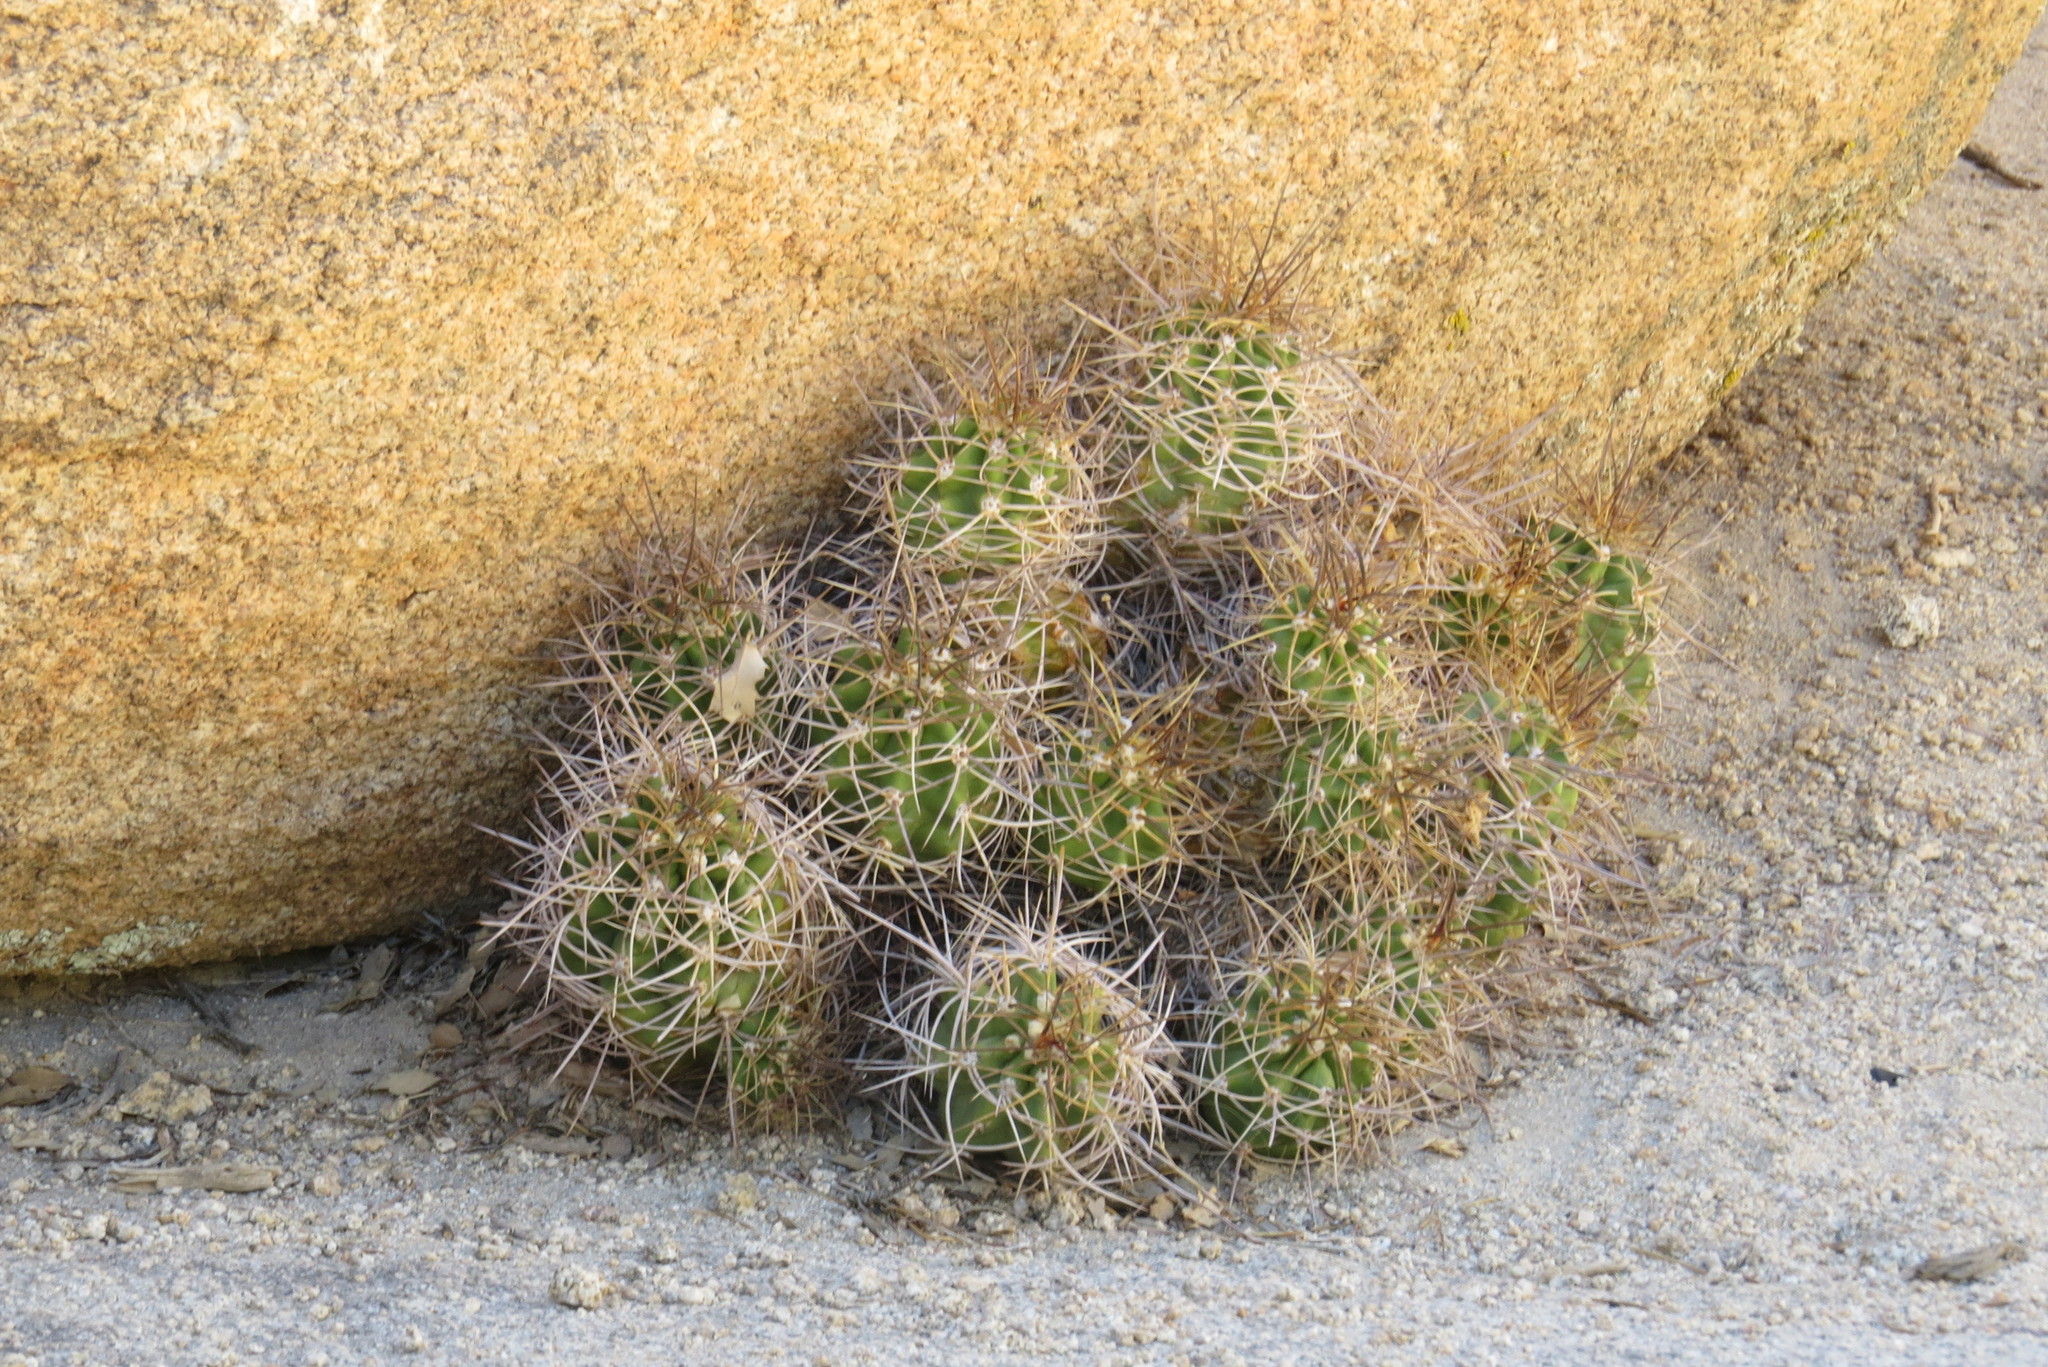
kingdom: Plantae
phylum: Tracheophyta
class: Magnoliopsida
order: Caryophyllales
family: Cactaceae
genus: Echinocereus
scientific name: Echinocereus triglochidiatus
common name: Claretcup hedgehog
